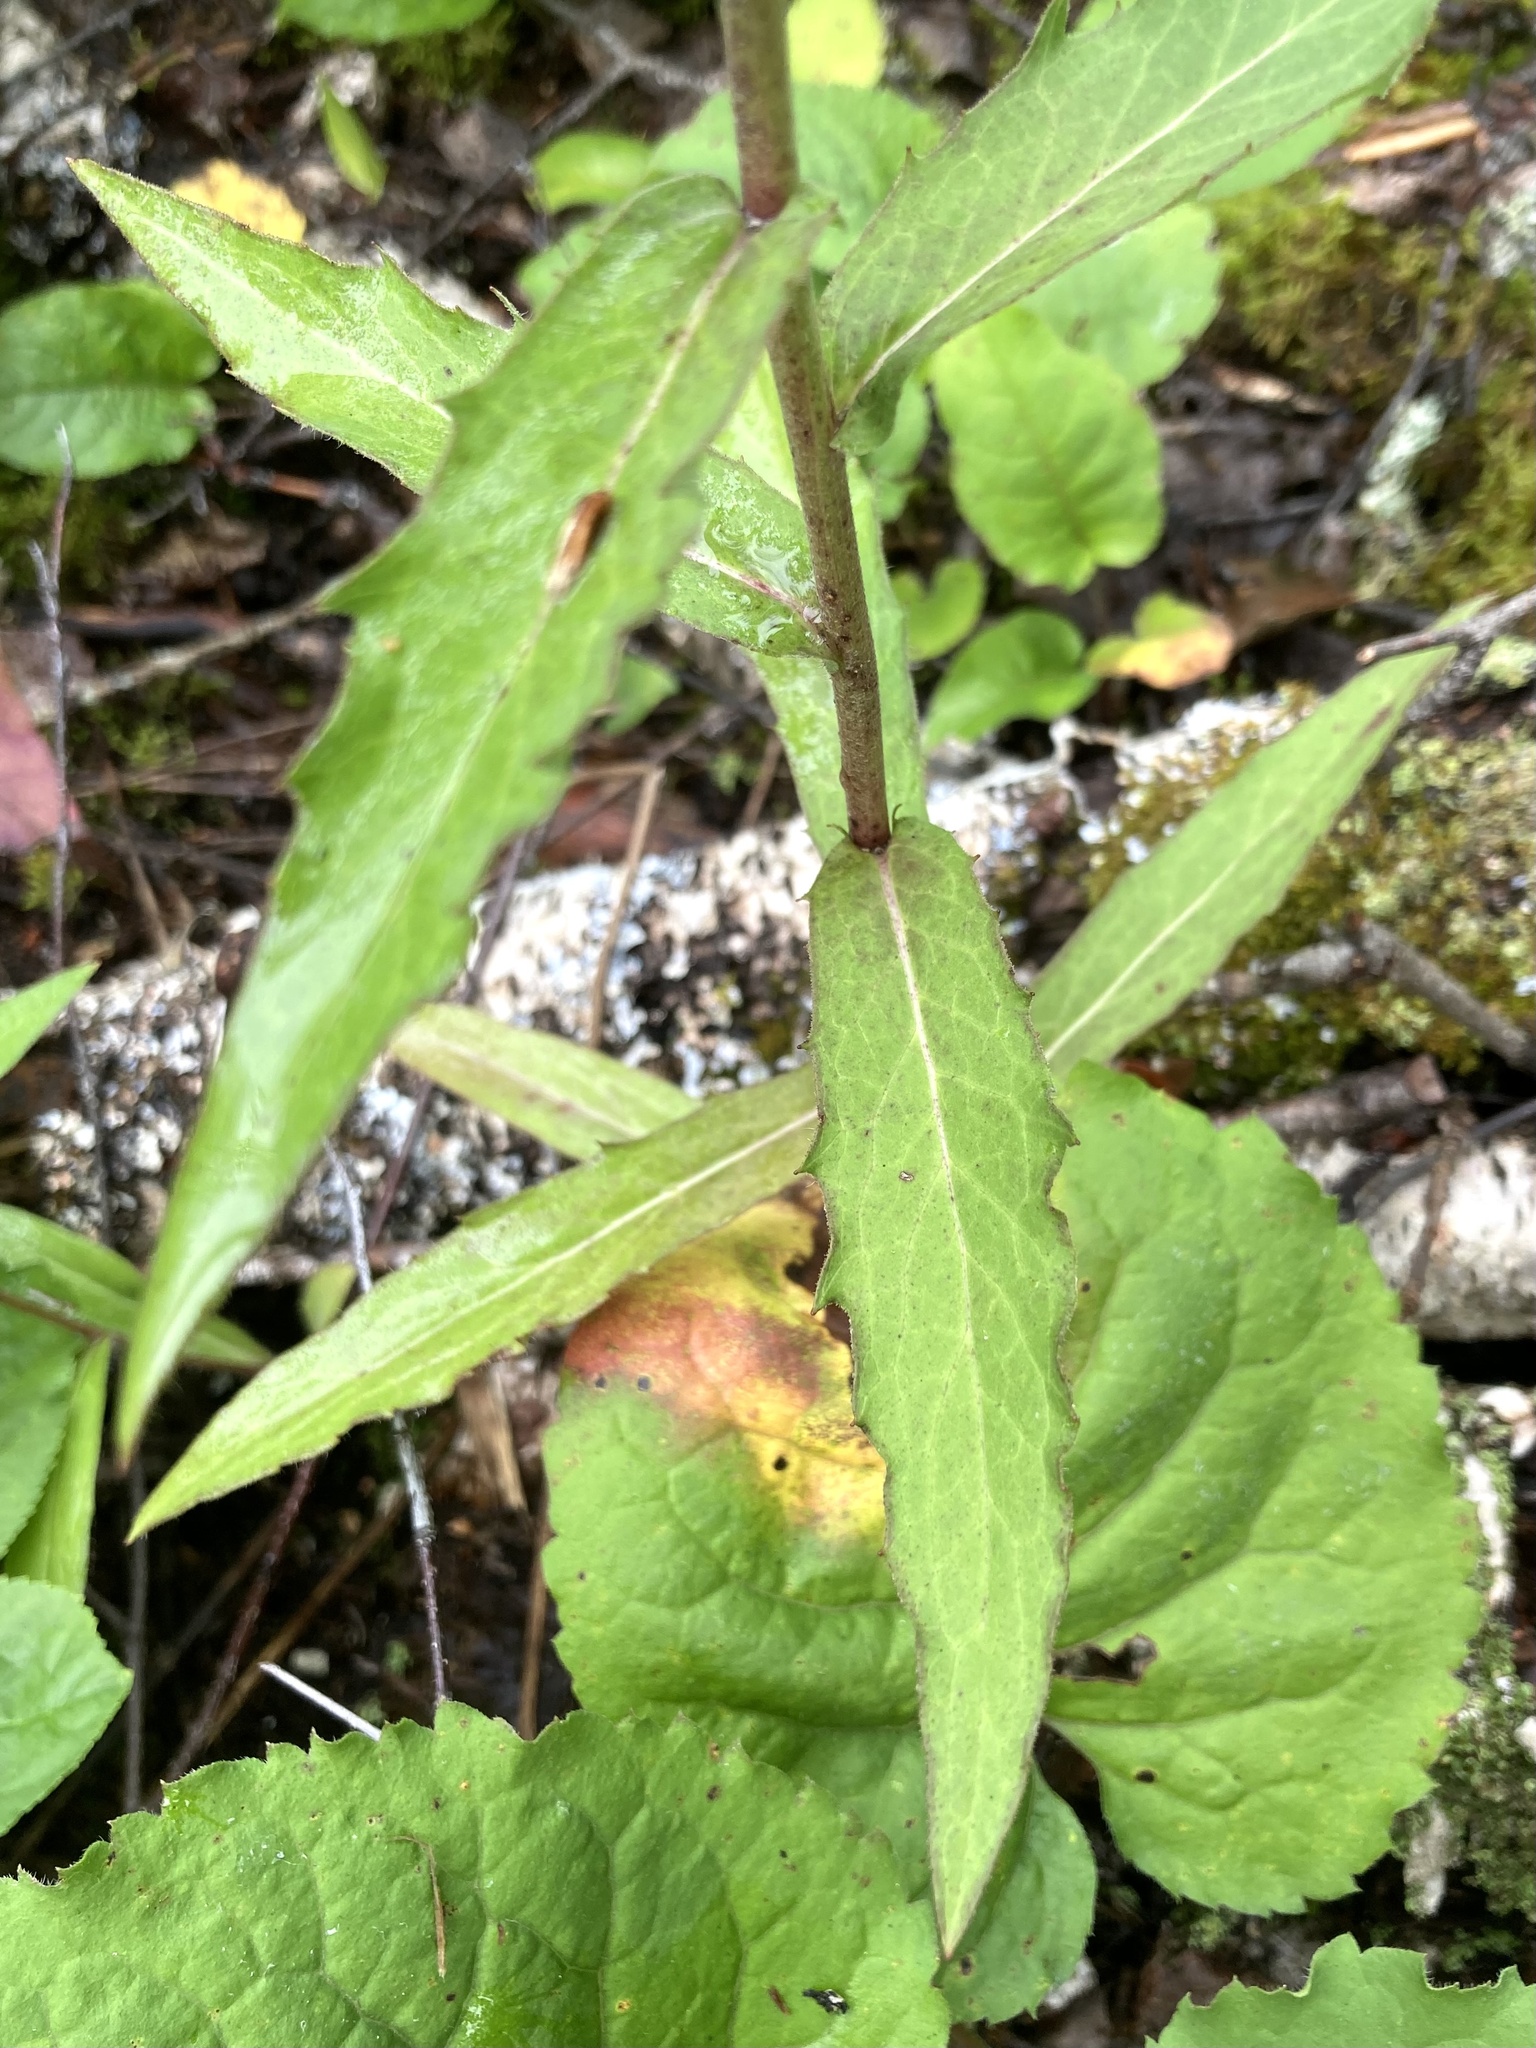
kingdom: Plantae
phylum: Tracheophyta
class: Magnoliopsida
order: Asterales
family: Asteraceae
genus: Hieracium
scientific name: Hieracium umbellatum
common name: Northern hawkweed
